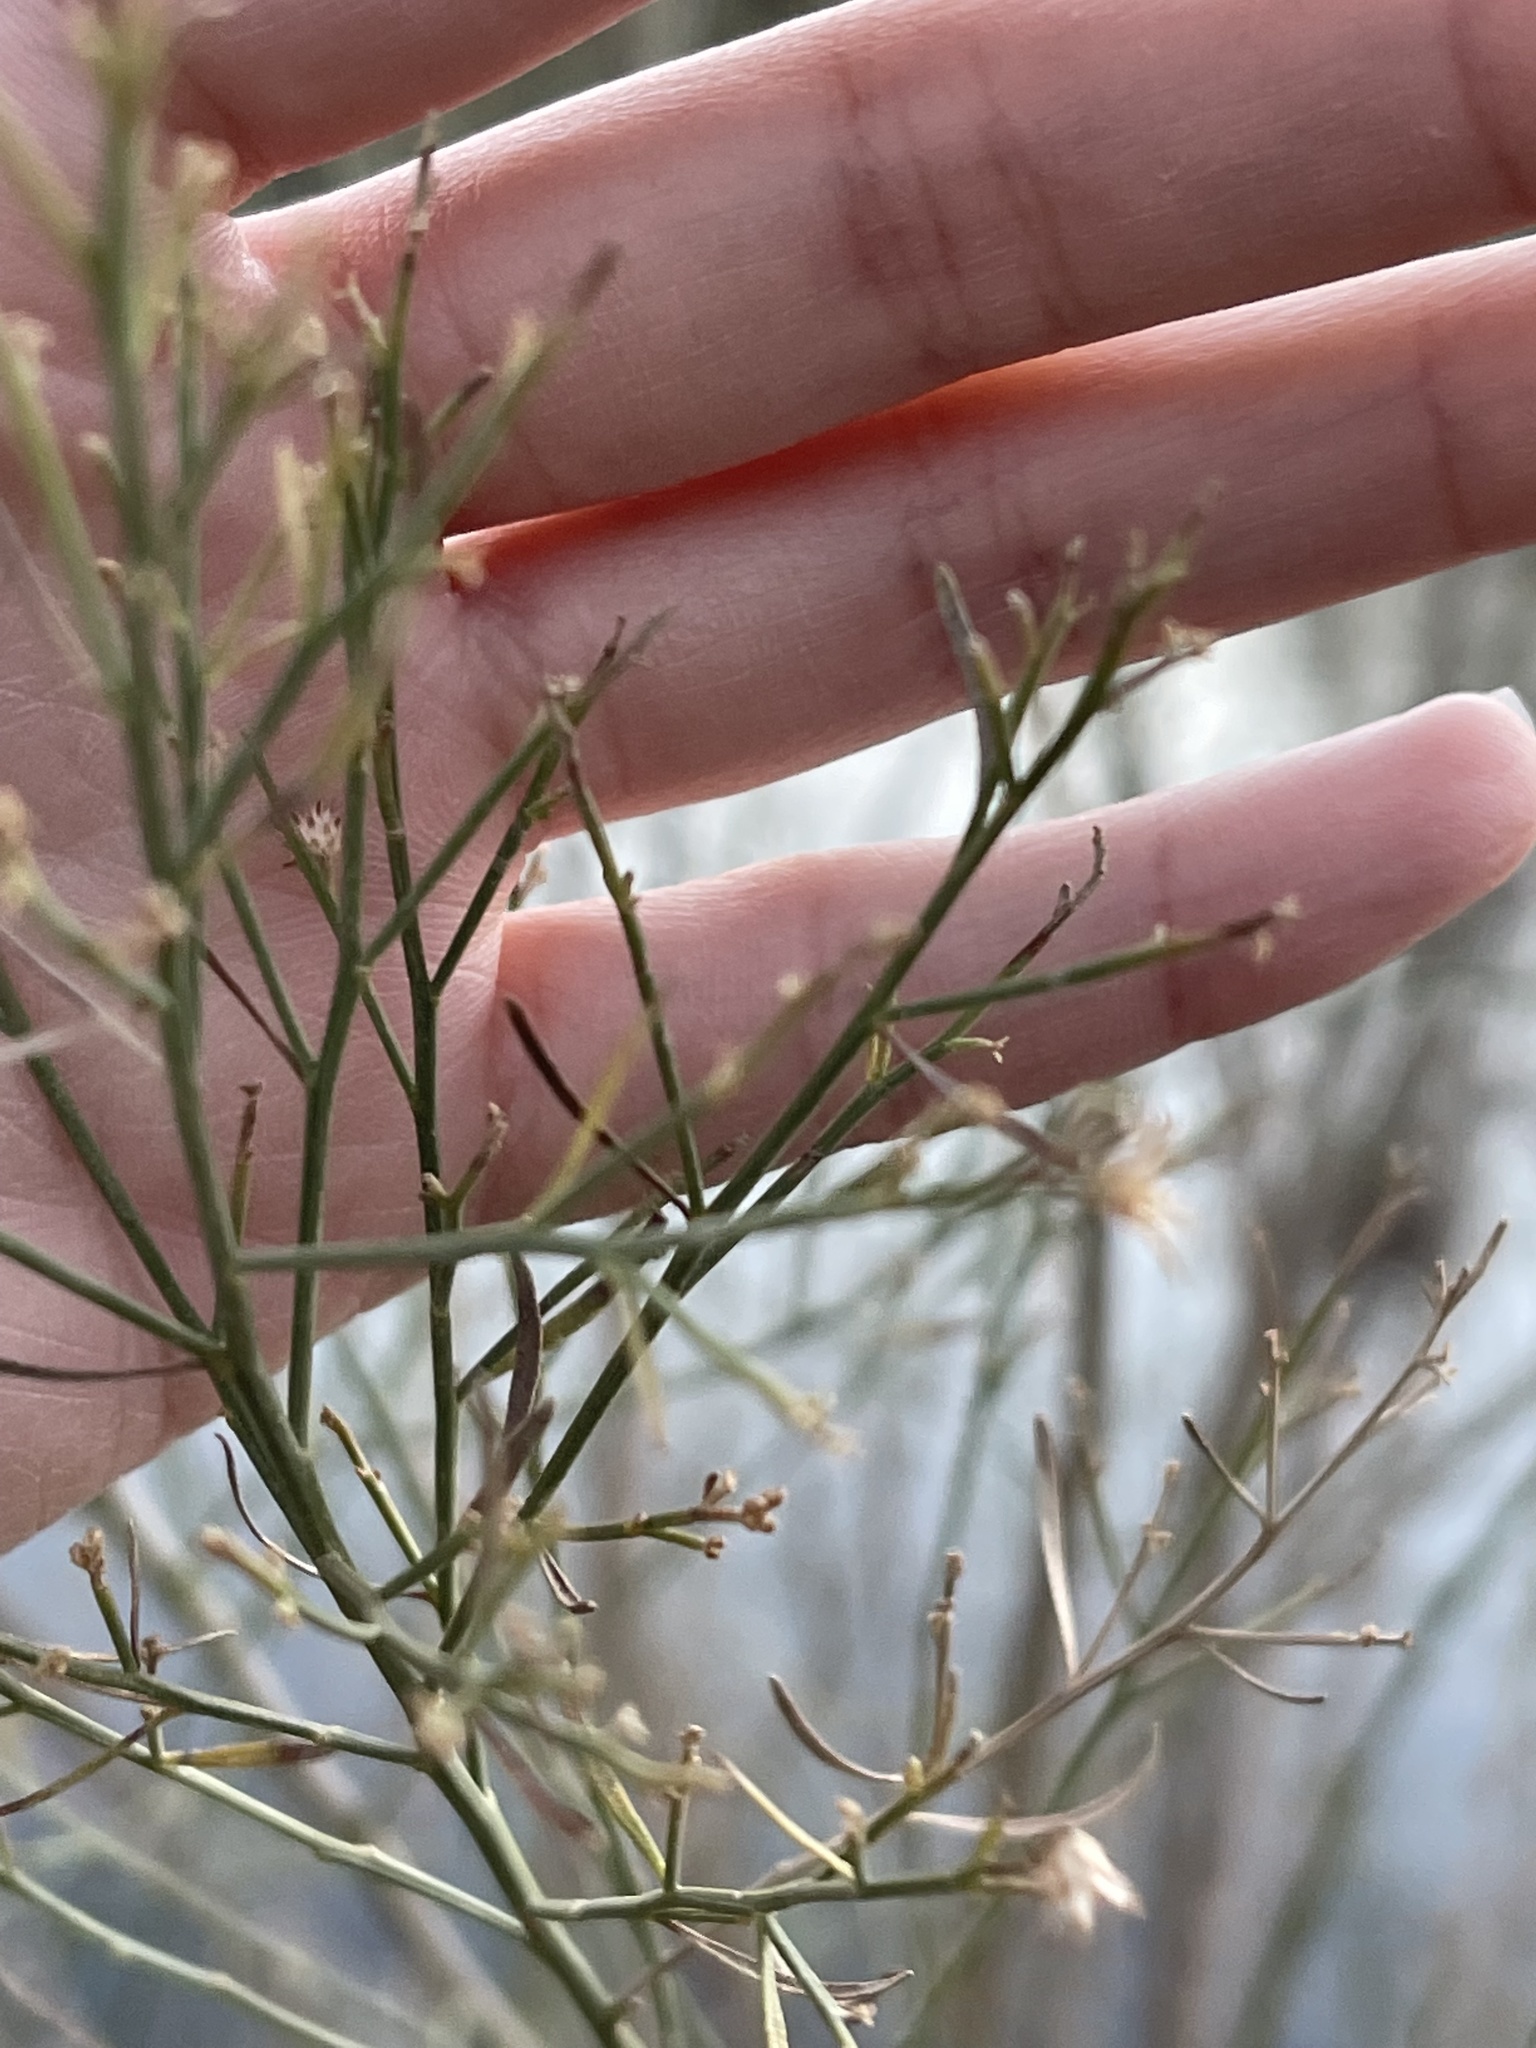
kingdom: Plantae
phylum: Tracheophyta
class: Magnoliopsida
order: Asterales
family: Asteraceae
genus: Baccharis
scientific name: Baccharis neglecta
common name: Roosevelt-weed
